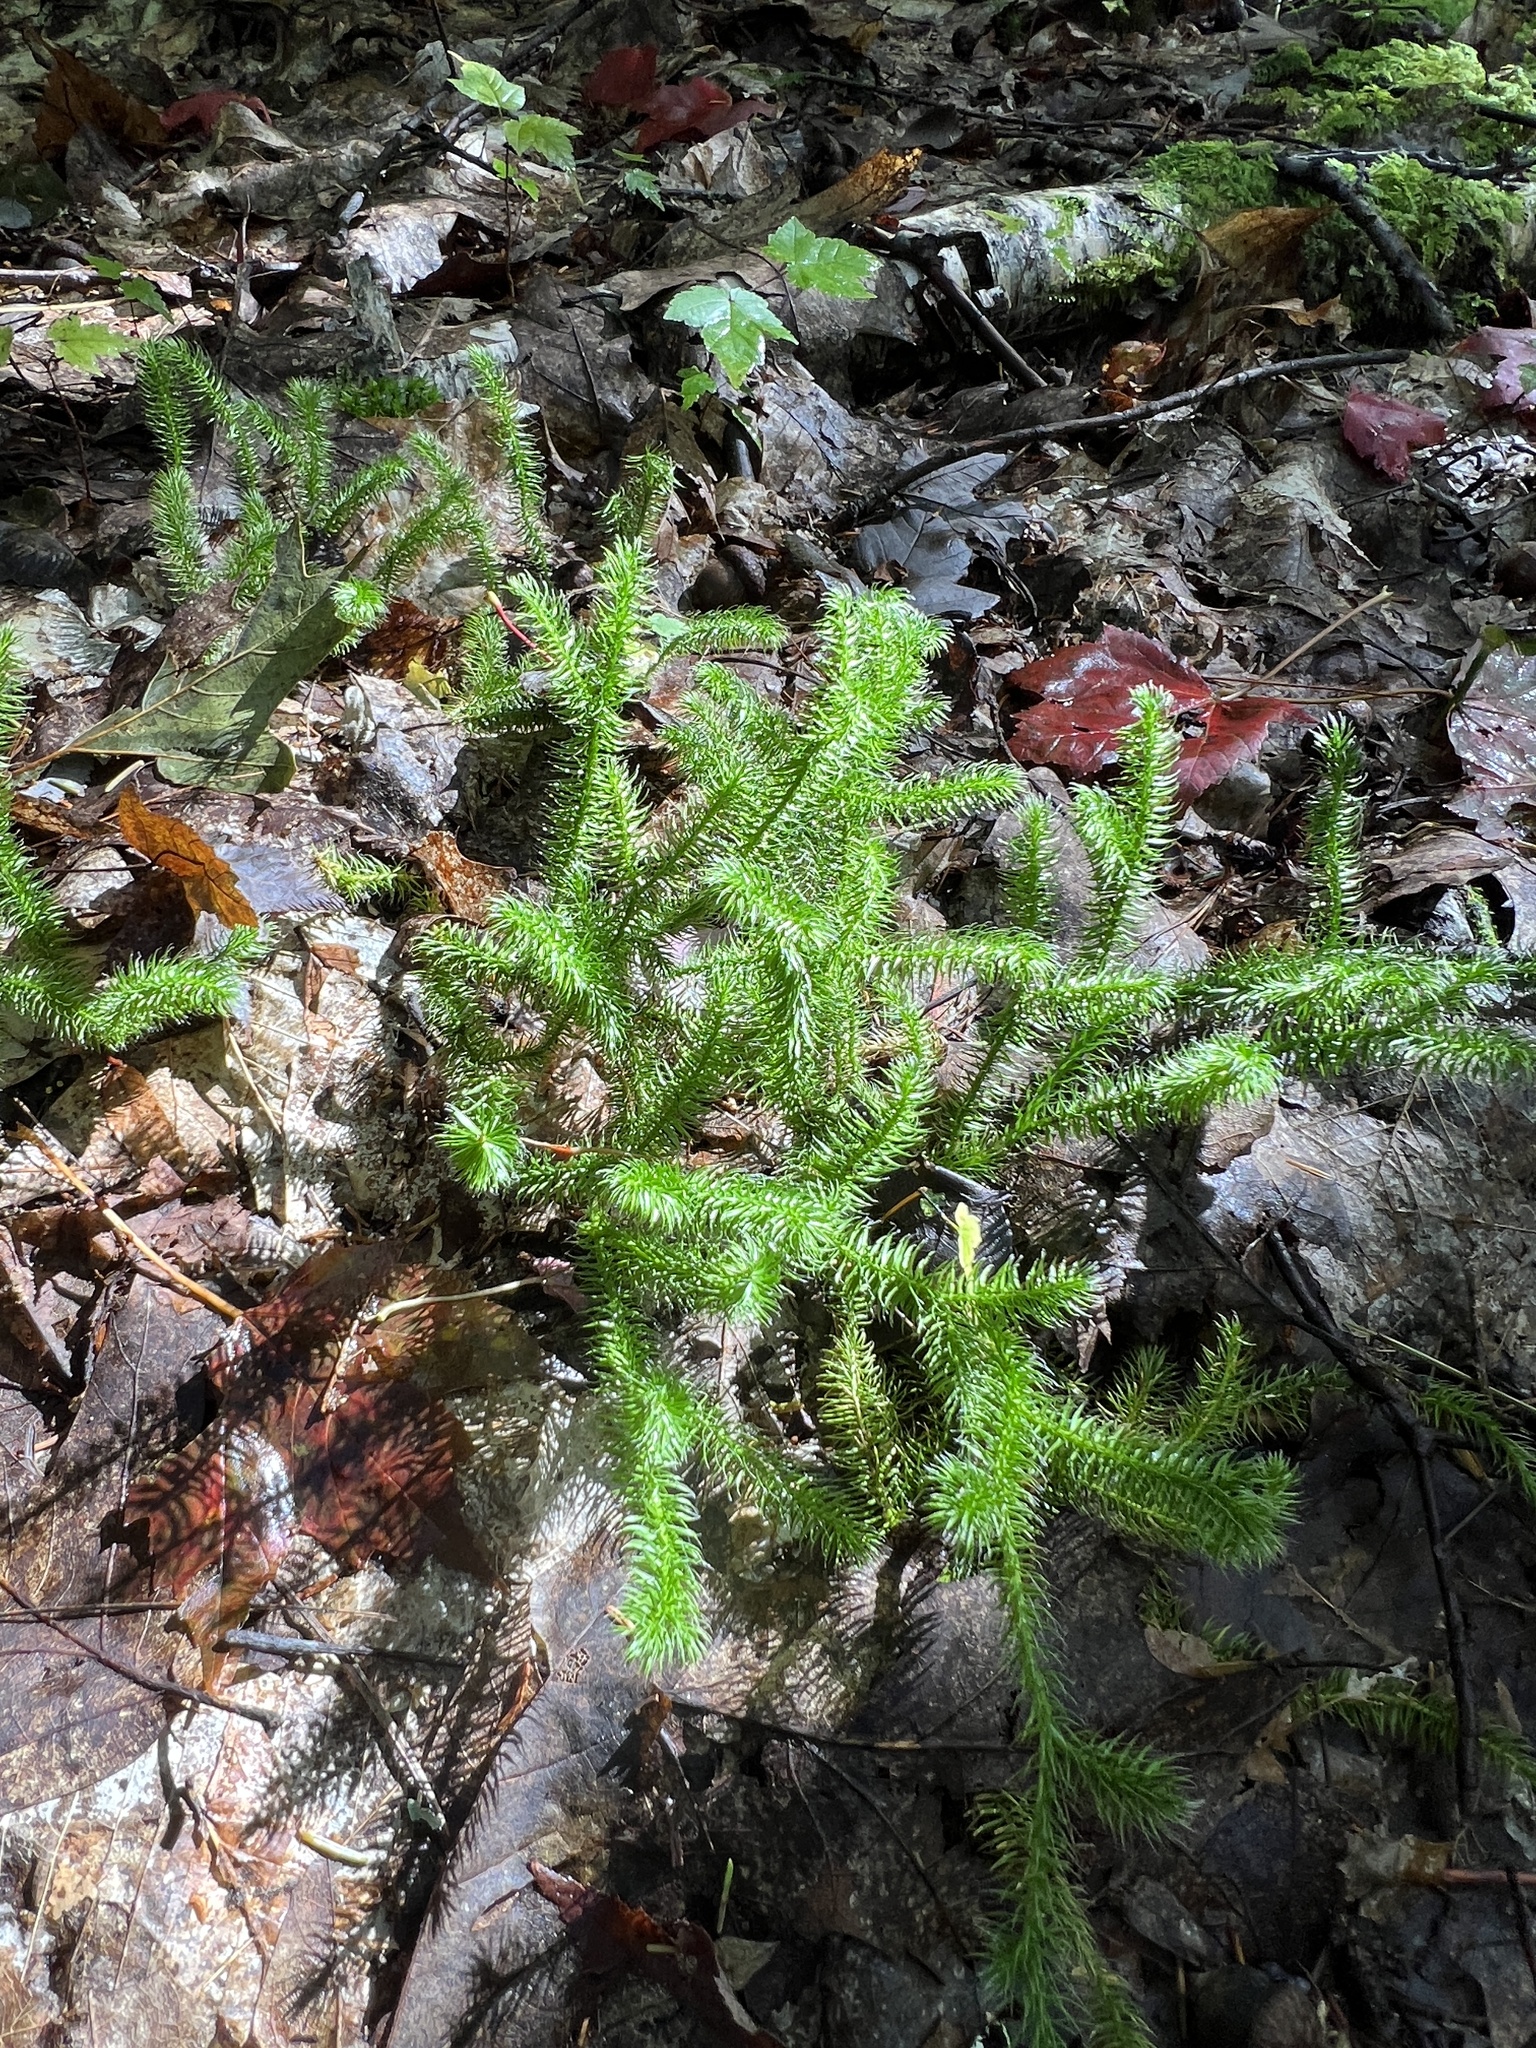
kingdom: Plantae
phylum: Tracheophyta
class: Lycopodiopsida
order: Lycopodiales
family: Lycopodiaceae
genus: Lycopodium
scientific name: Lycopodium clavatum
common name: Stag's-horn clubmoss
